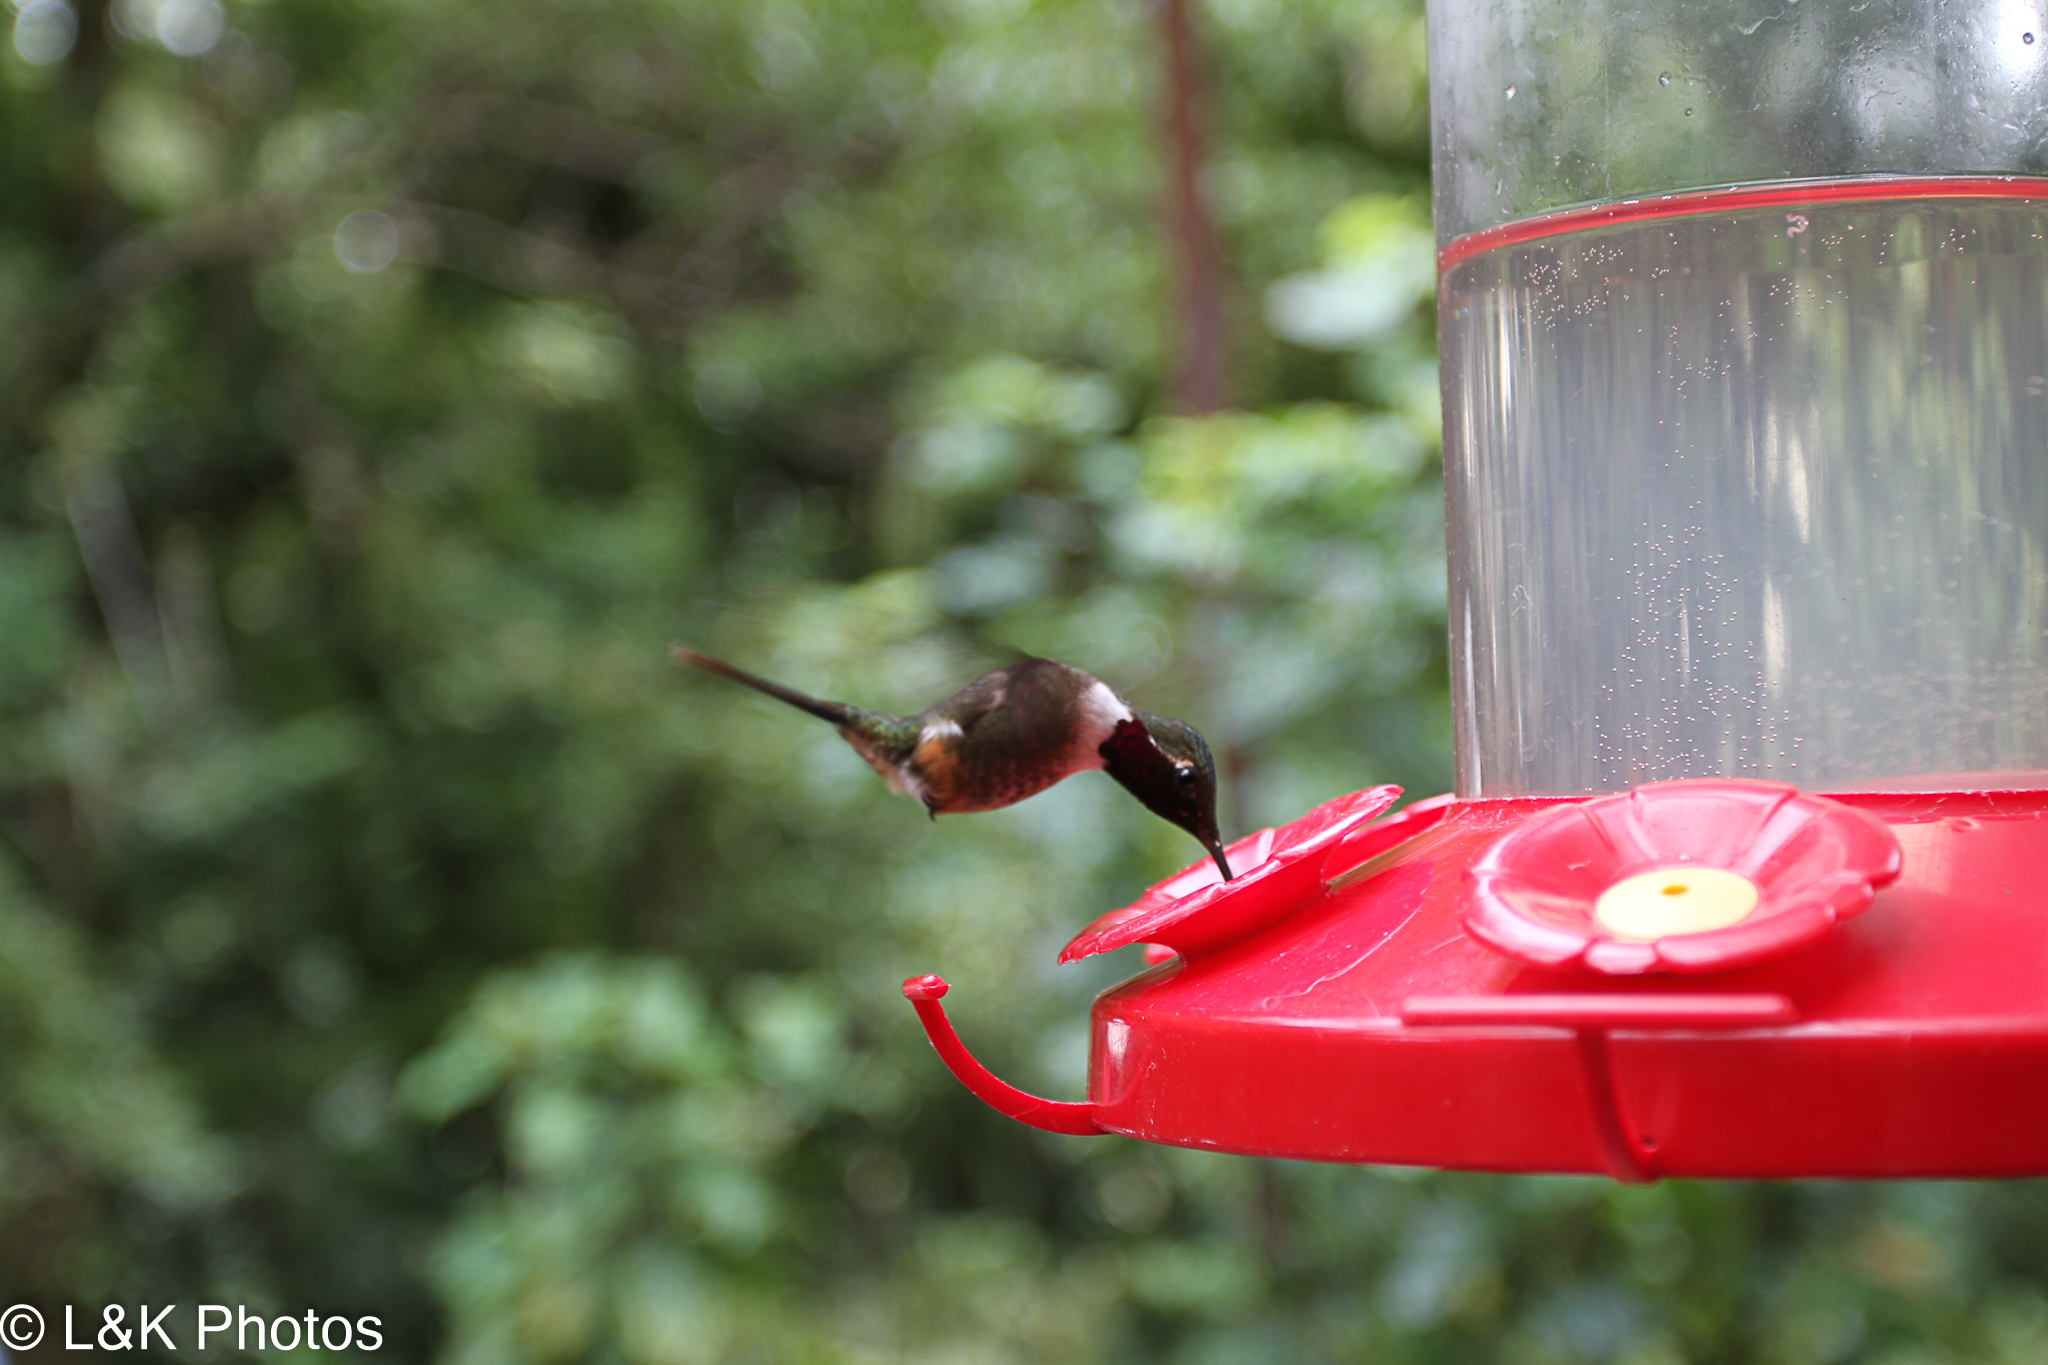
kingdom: Animalia
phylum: Chordata
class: Aves
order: Apodiformes
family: Trochilidae
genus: Calliphlox
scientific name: Calliphlox bryantae
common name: Magenta-throated woodstar
